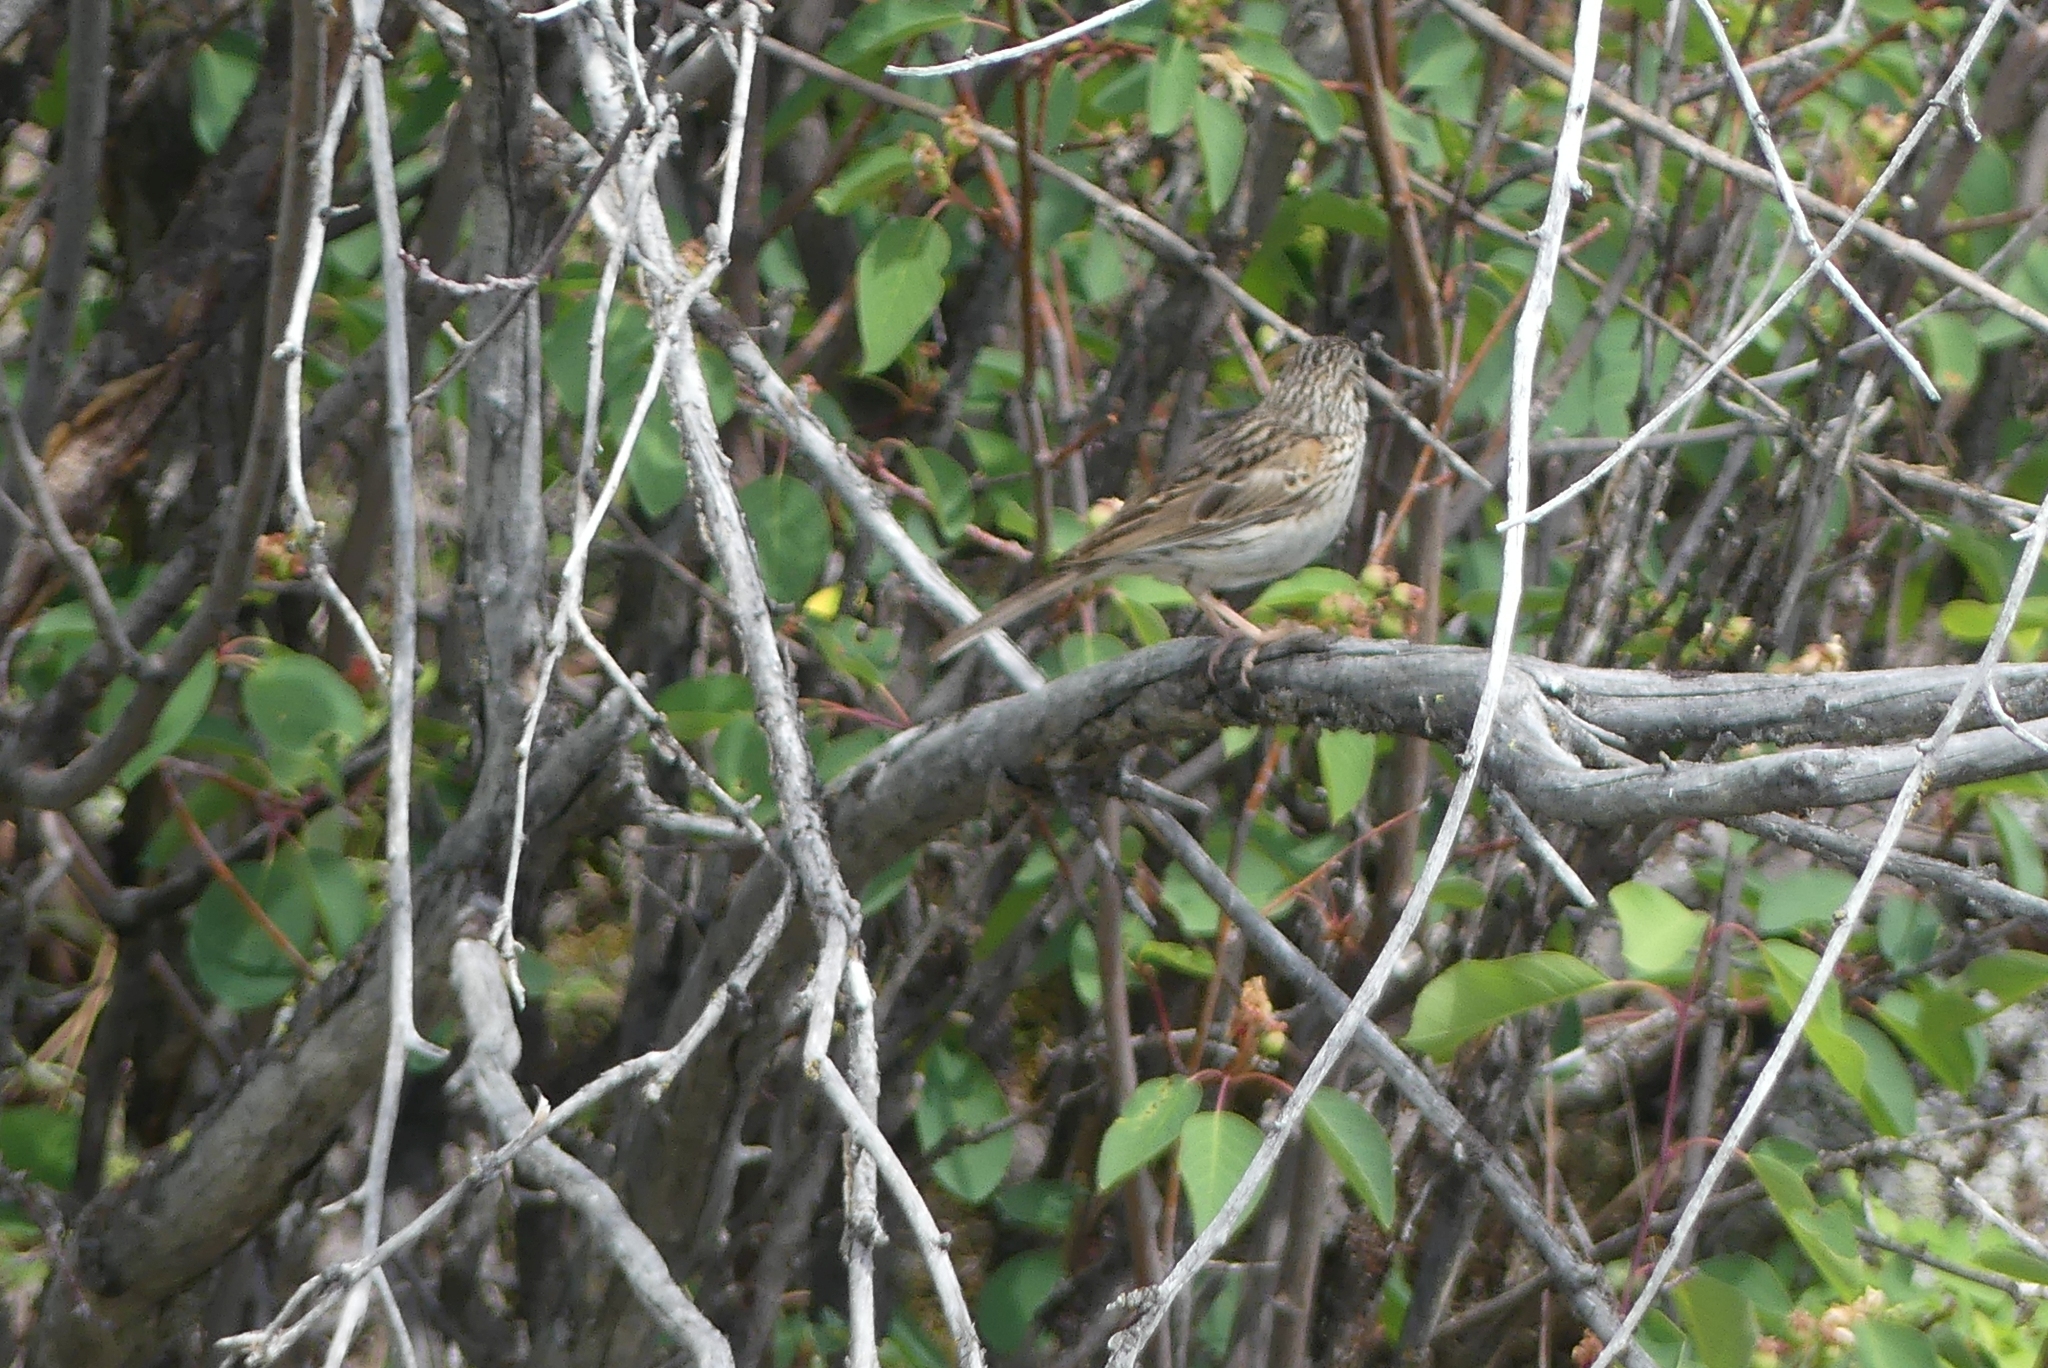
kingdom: Animalia
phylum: Chordata
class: Aves
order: Passeriformes
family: Passerellidae
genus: Pooecetes
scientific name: Pooecetes gramineus
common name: Vesper sparrow
